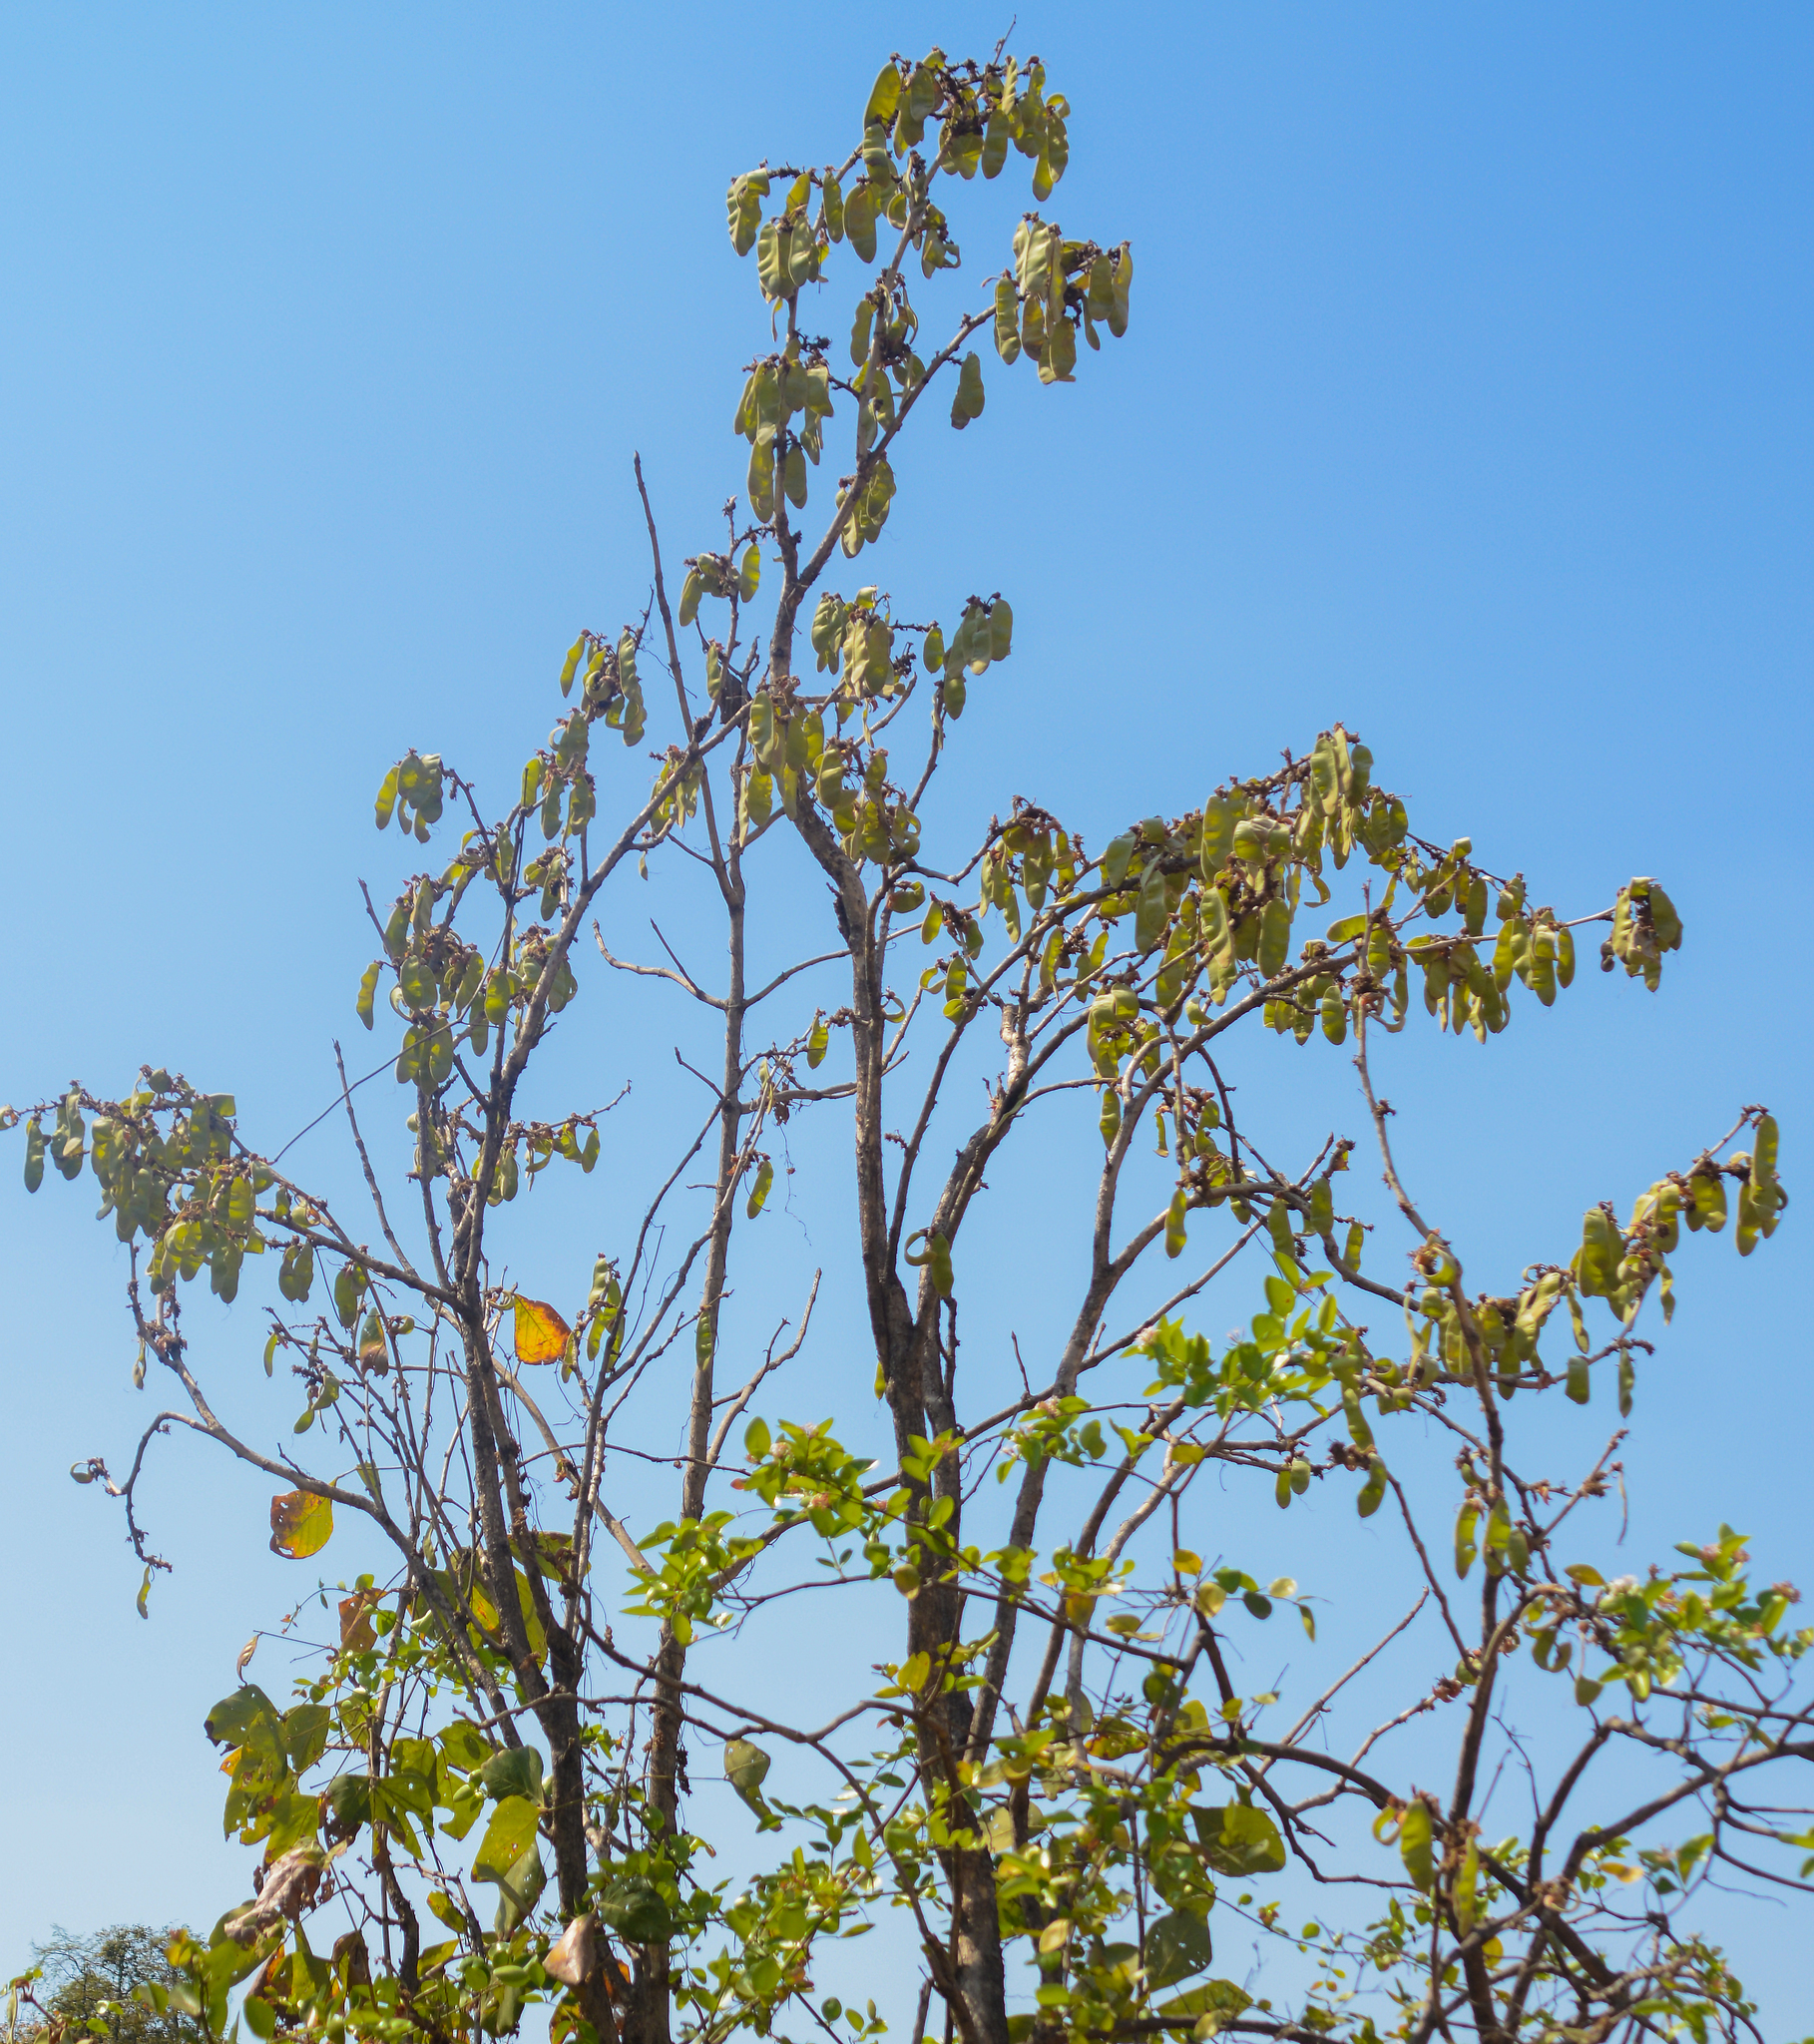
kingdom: Plantae
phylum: Tracheophyta
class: Magnoliopsida
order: Fabales
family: Fabaceae
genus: Butea
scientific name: Butea monosperma
